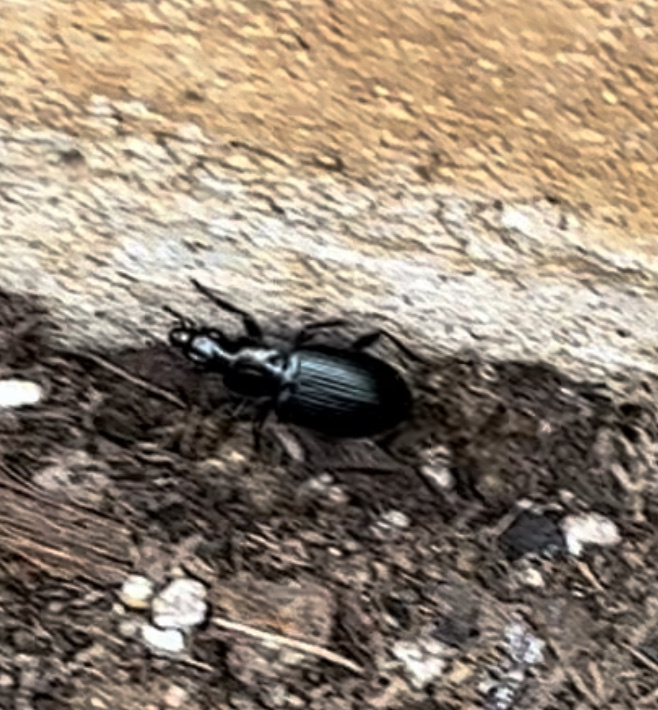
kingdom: Animalia
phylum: Arthropoda
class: Insecta
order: Coleoptera
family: Carabidae
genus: Laemostenus
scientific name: Laemostenus complanatus
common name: Cosmopolitan ground beetle
